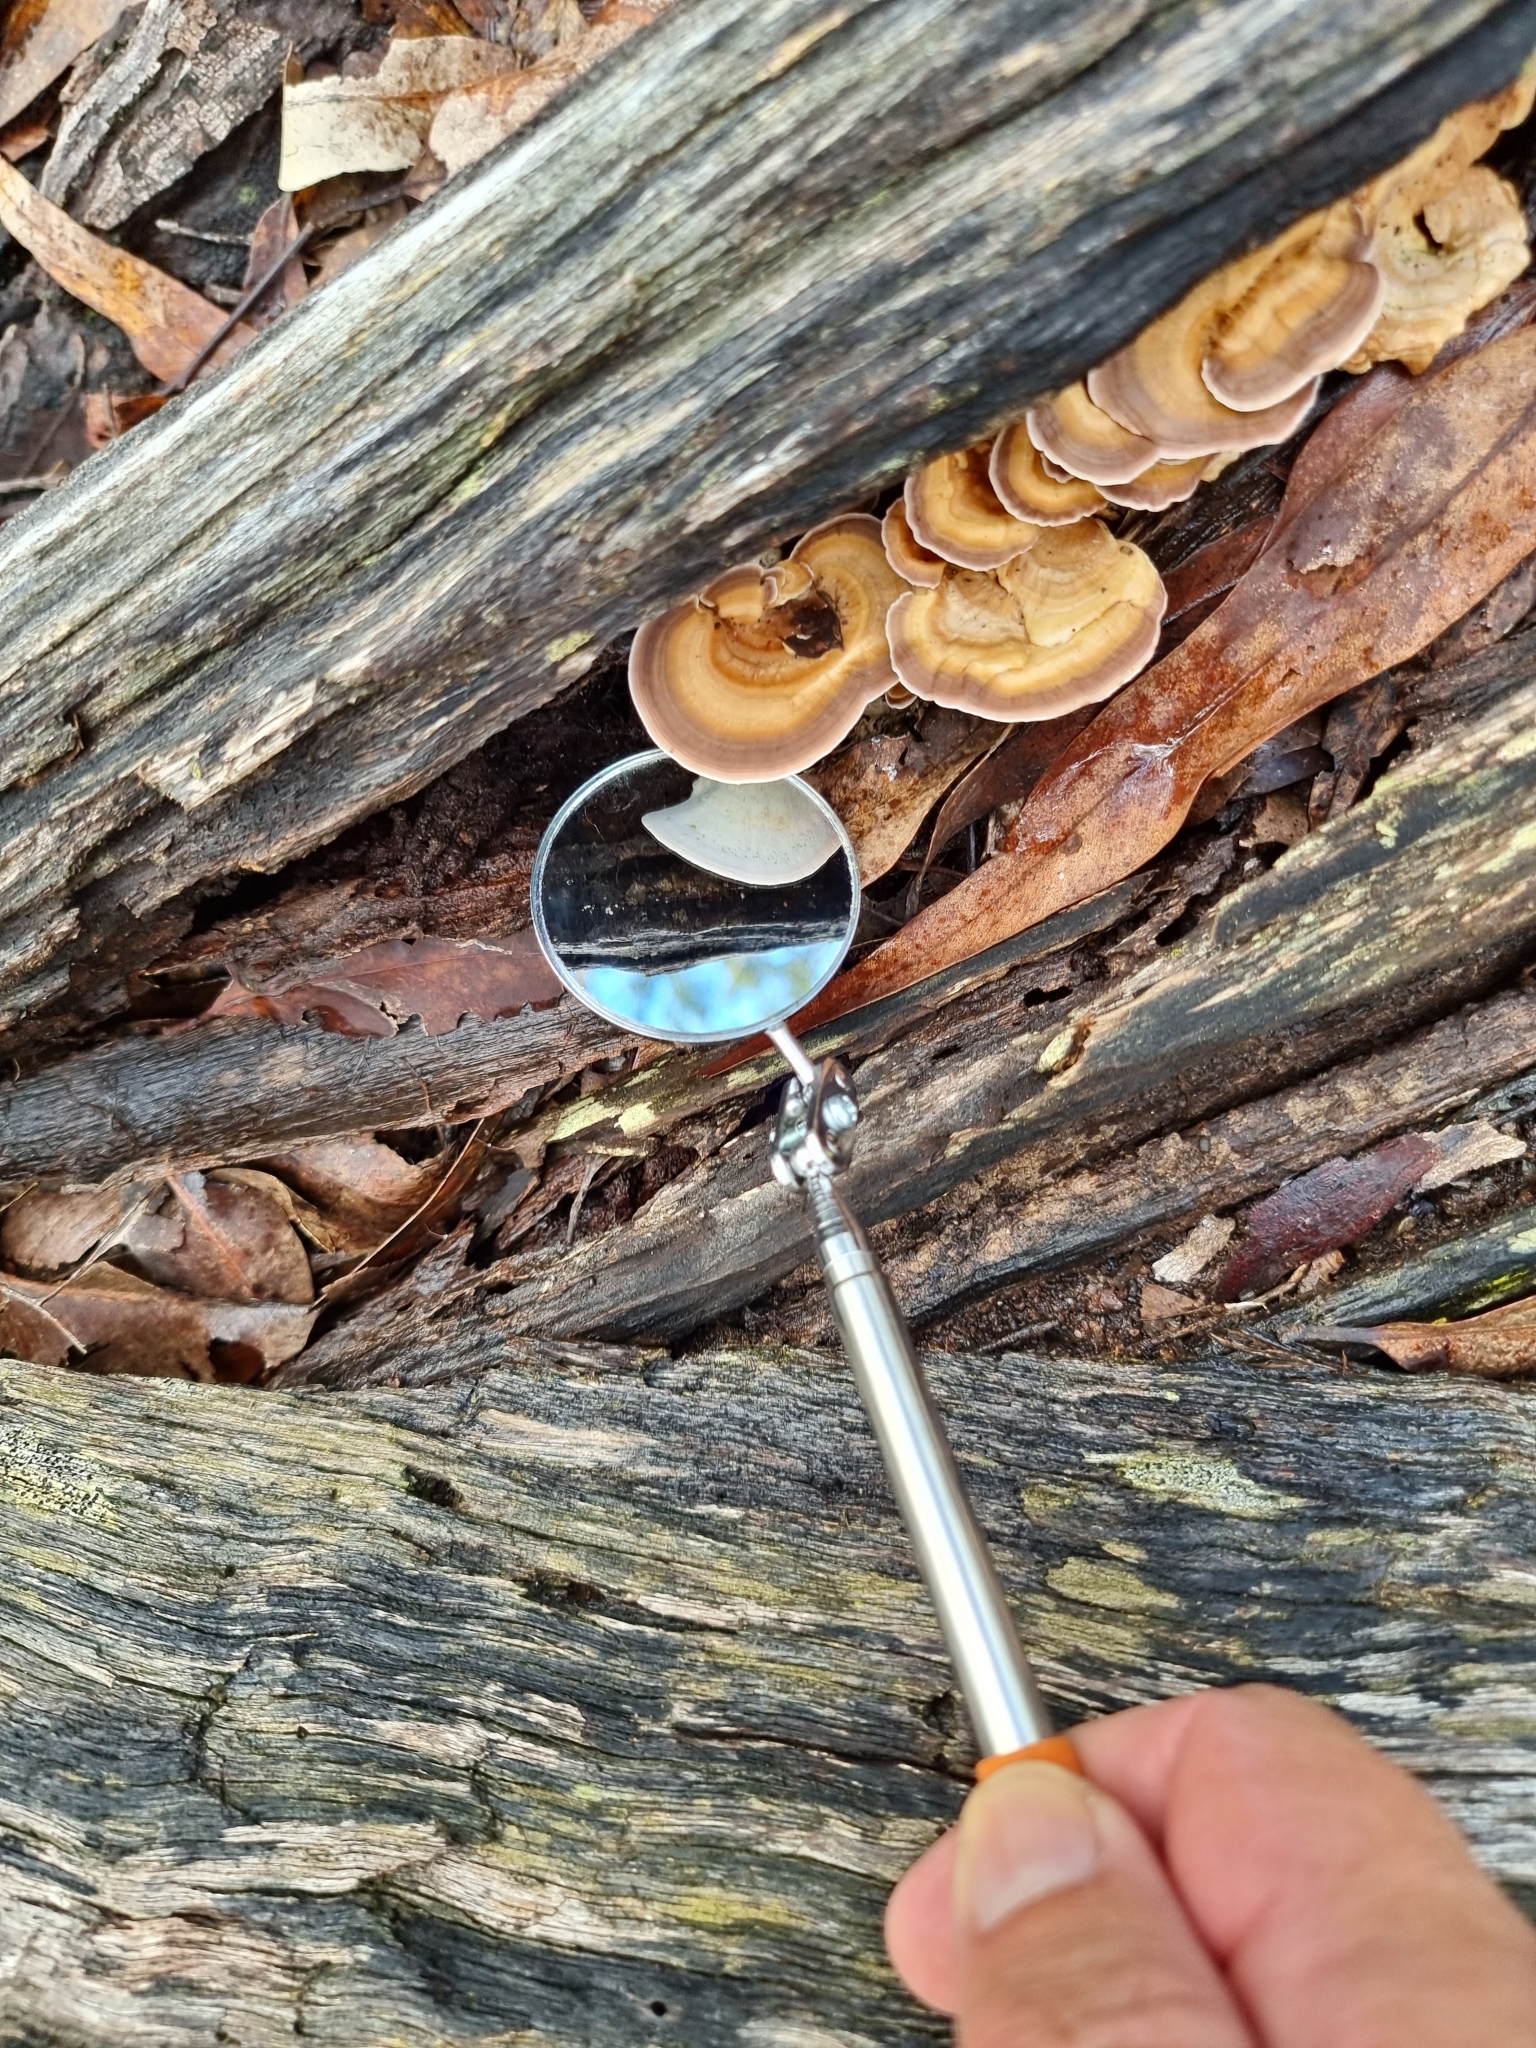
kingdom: Fungi
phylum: Basidiomycota
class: Agaricomycetes
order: Hymenochaetales
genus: Trichaptum
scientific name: Trichaptum biforme
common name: Violet-toothed polypore
